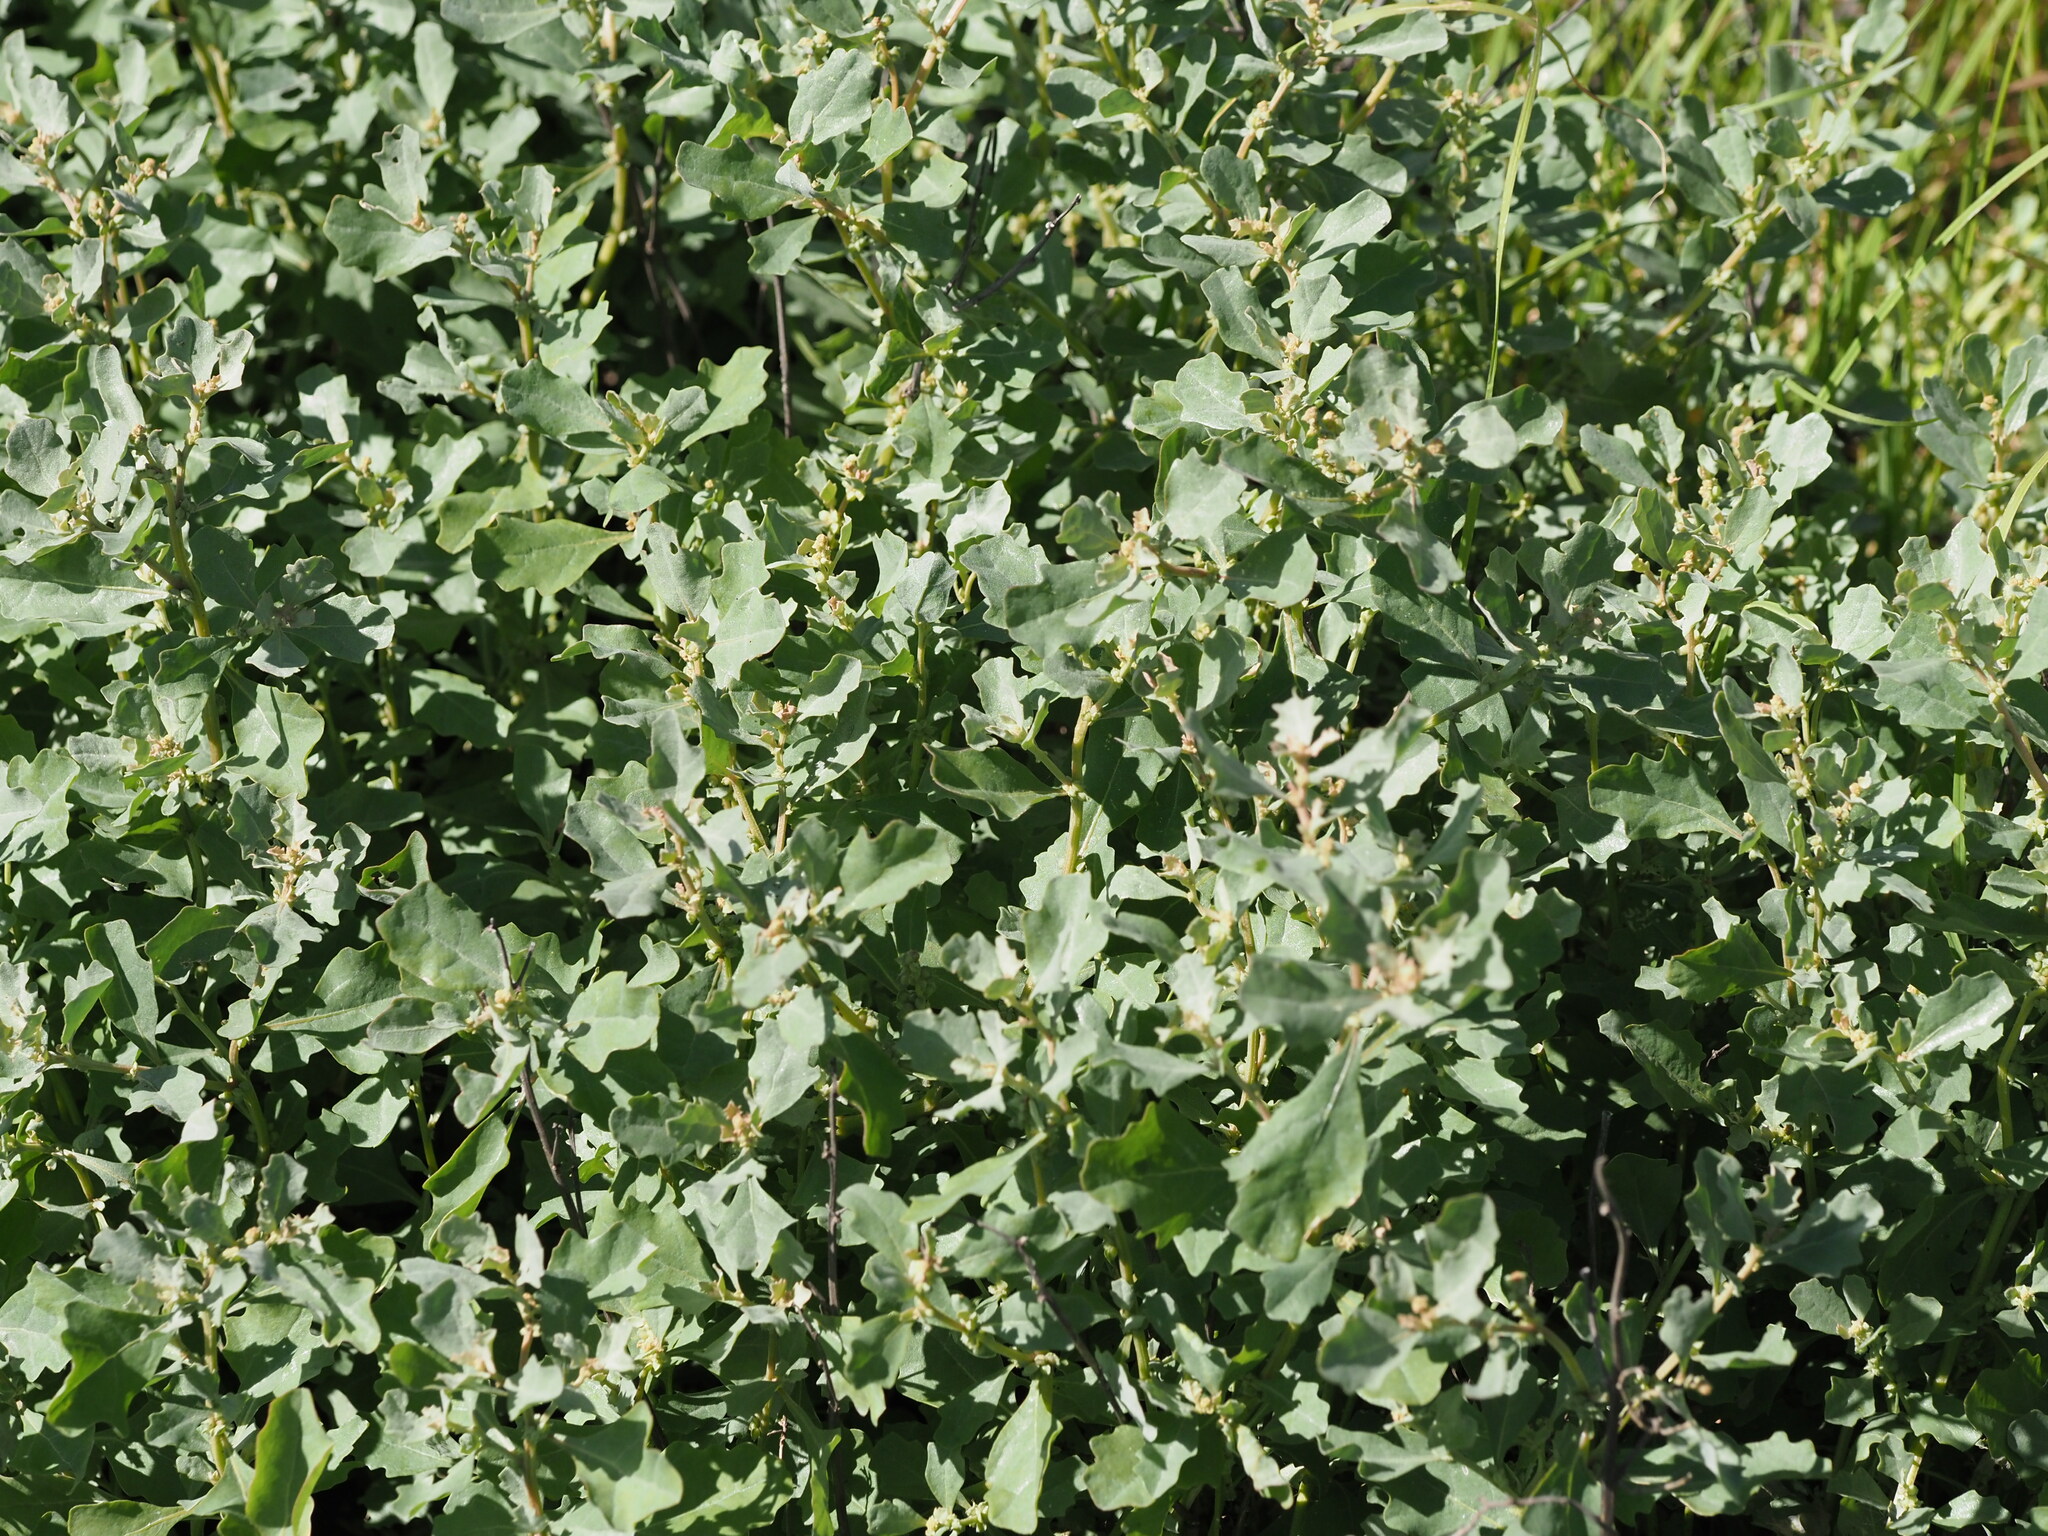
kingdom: Plantae
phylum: Tracheophyta
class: Magnoliopsida
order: Caryophyllales
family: Amaranthaceae
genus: Atriplex
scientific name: Atriplex muelleri
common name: Mueller's saltbush
